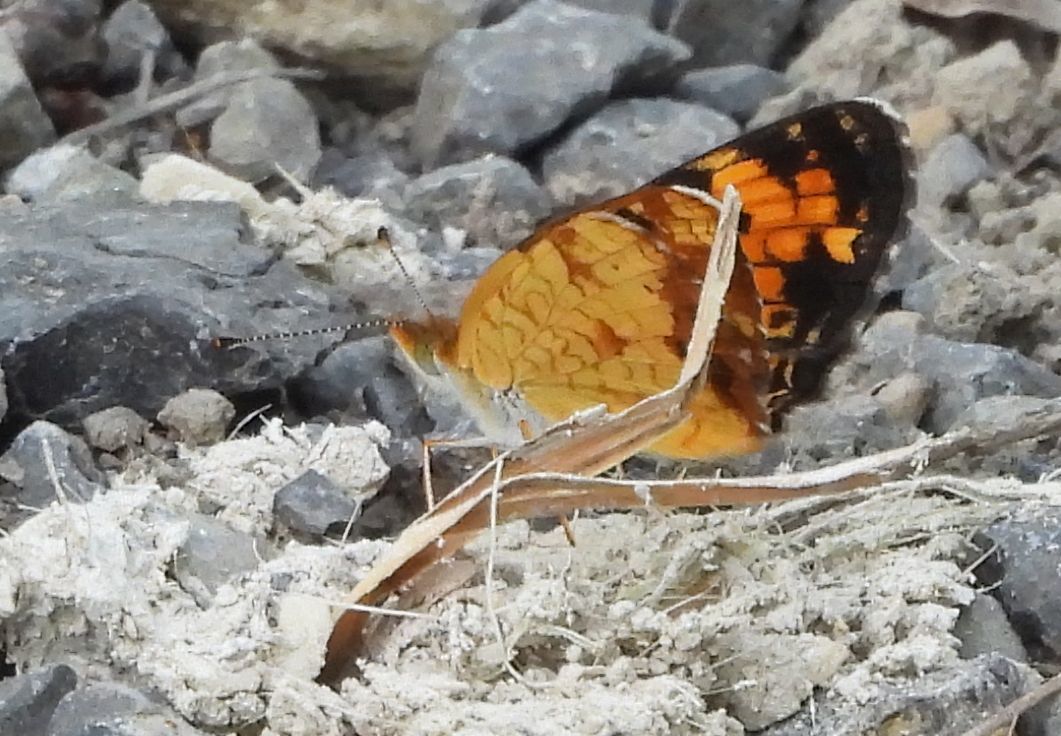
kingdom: Animalia
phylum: Arthropoda
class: Insecta
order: Lepidoptera
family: Nymphalidae
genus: Phyciodes
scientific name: Phyciodes tharos
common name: Pearl crescent
